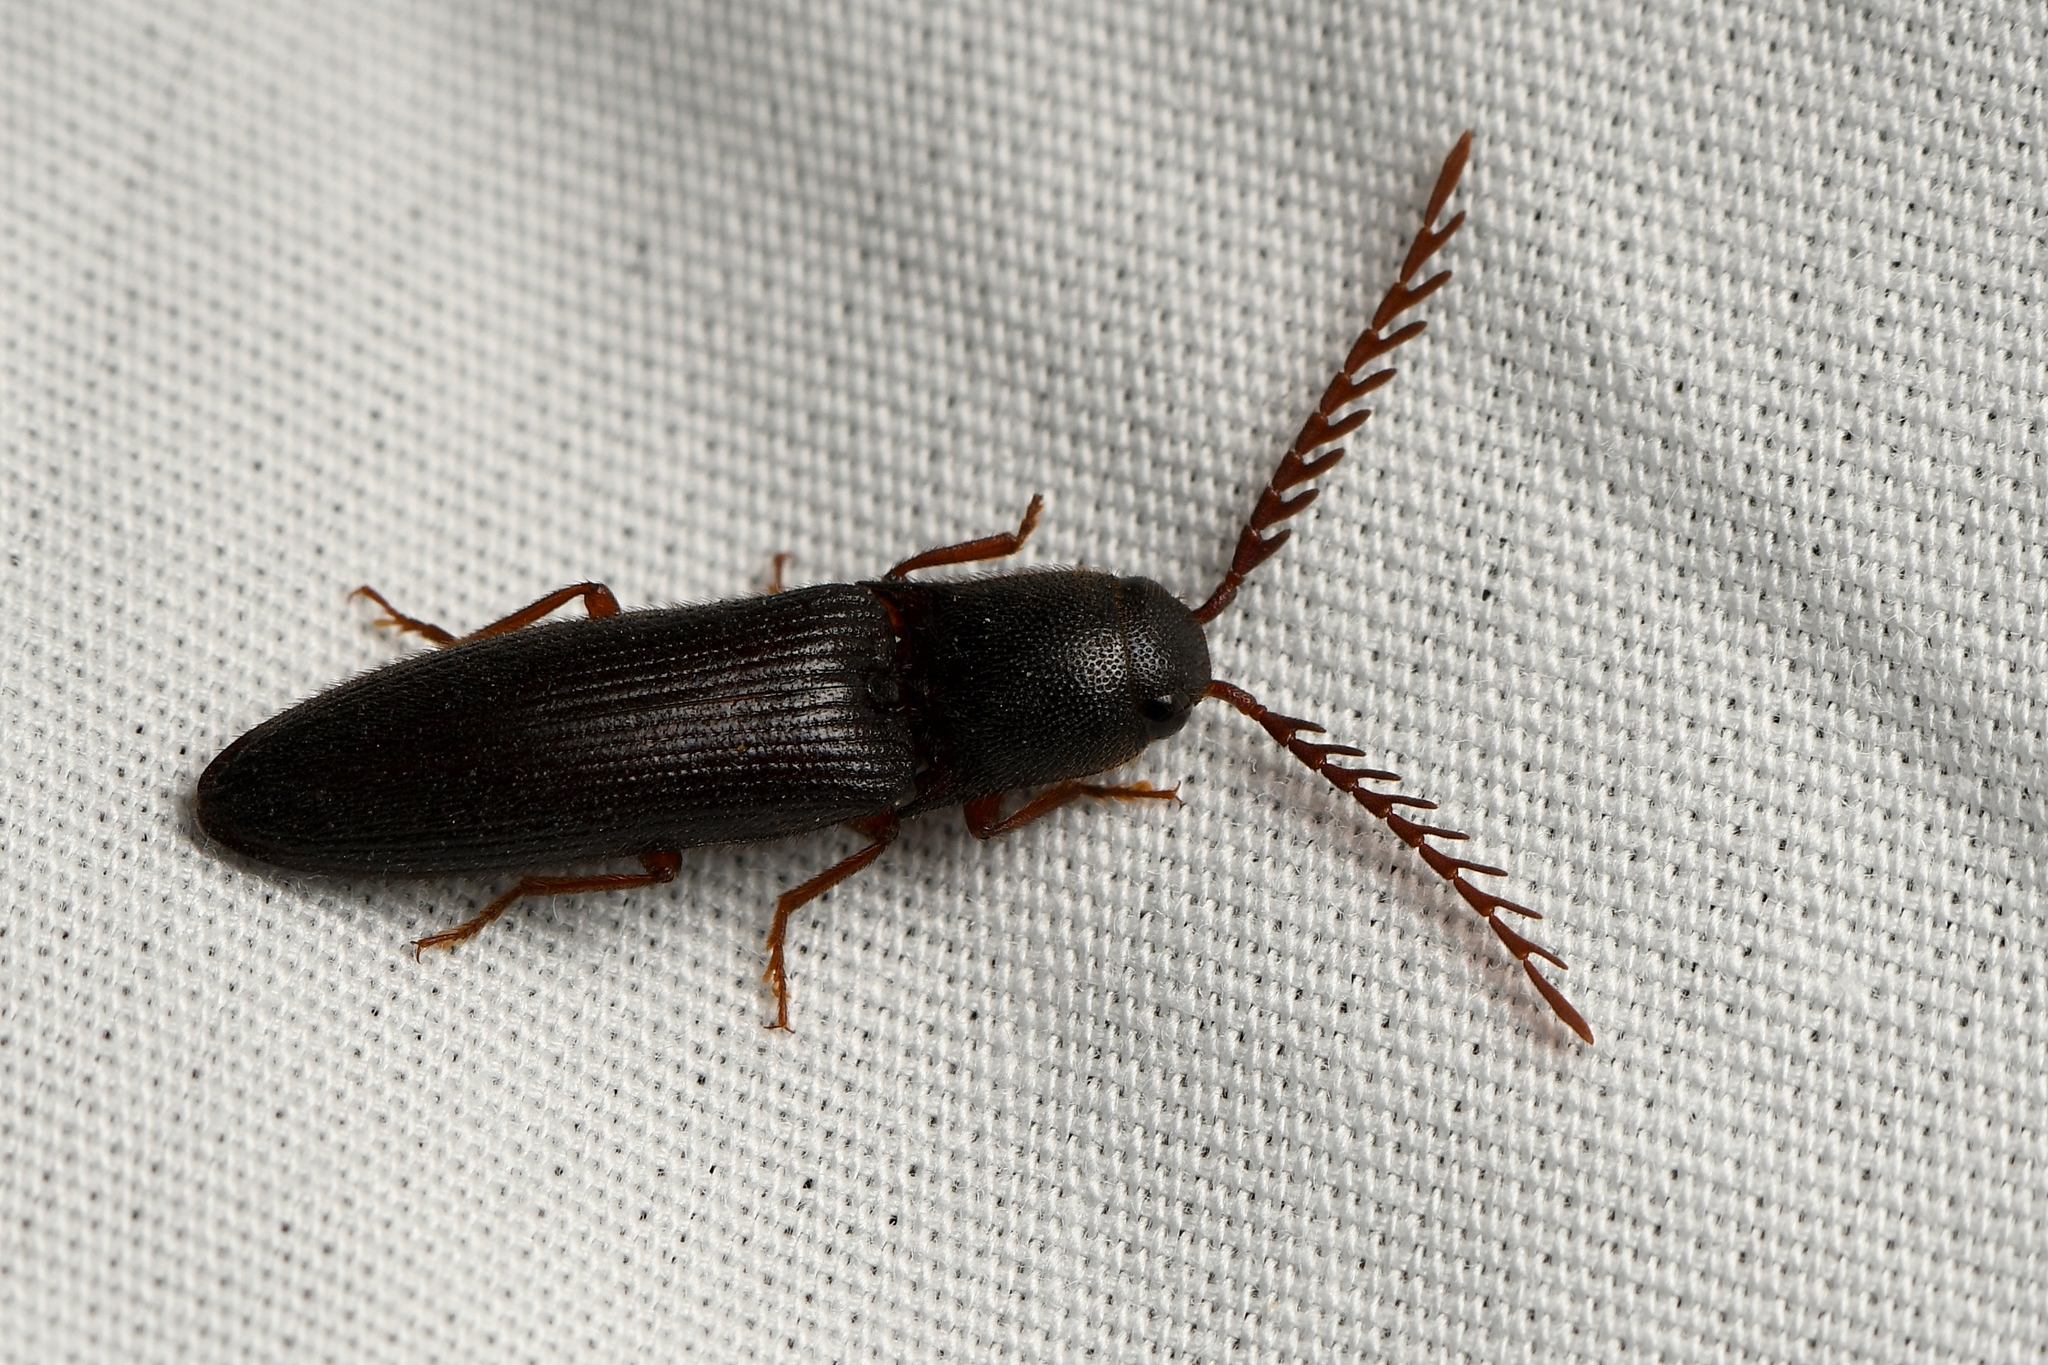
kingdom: Animalia
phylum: Arthropoda
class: Insecta
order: Coleoptera
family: Elateridae
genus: Dicrepidius
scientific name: Dicrepidius corvinus
